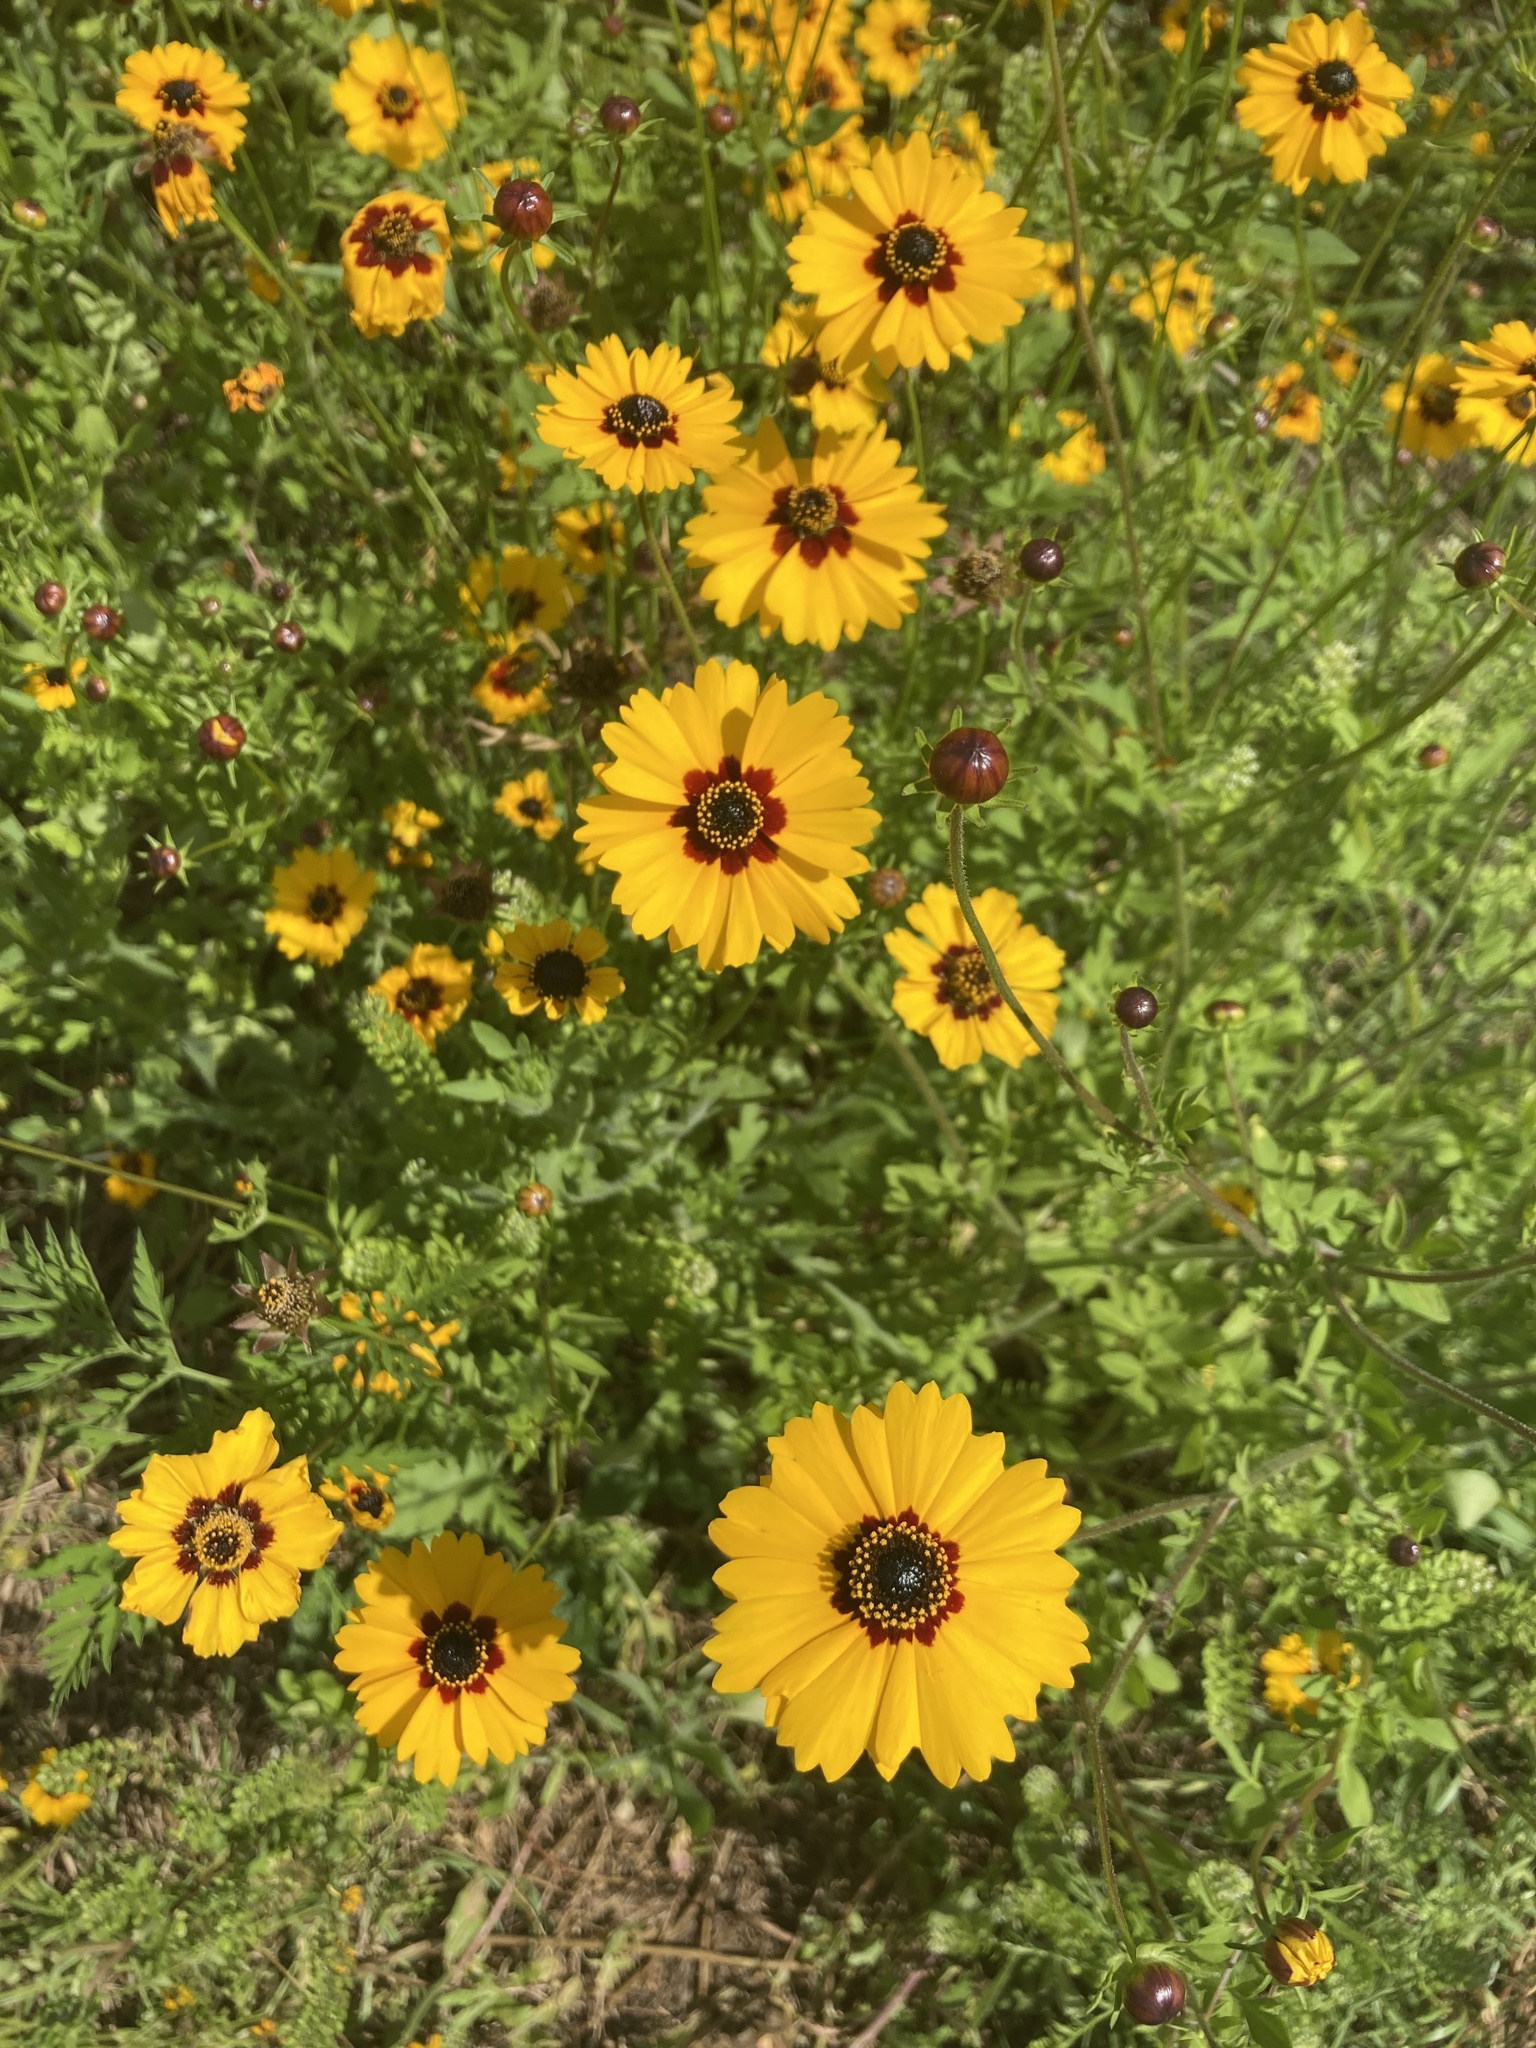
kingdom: Plantae
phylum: Tracheophyta
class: Magnoliopsida
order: Asterales
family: Asteraceae
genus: Coreopsis
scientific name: Coreopsis basalis
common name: Golden-mane coreopsis
